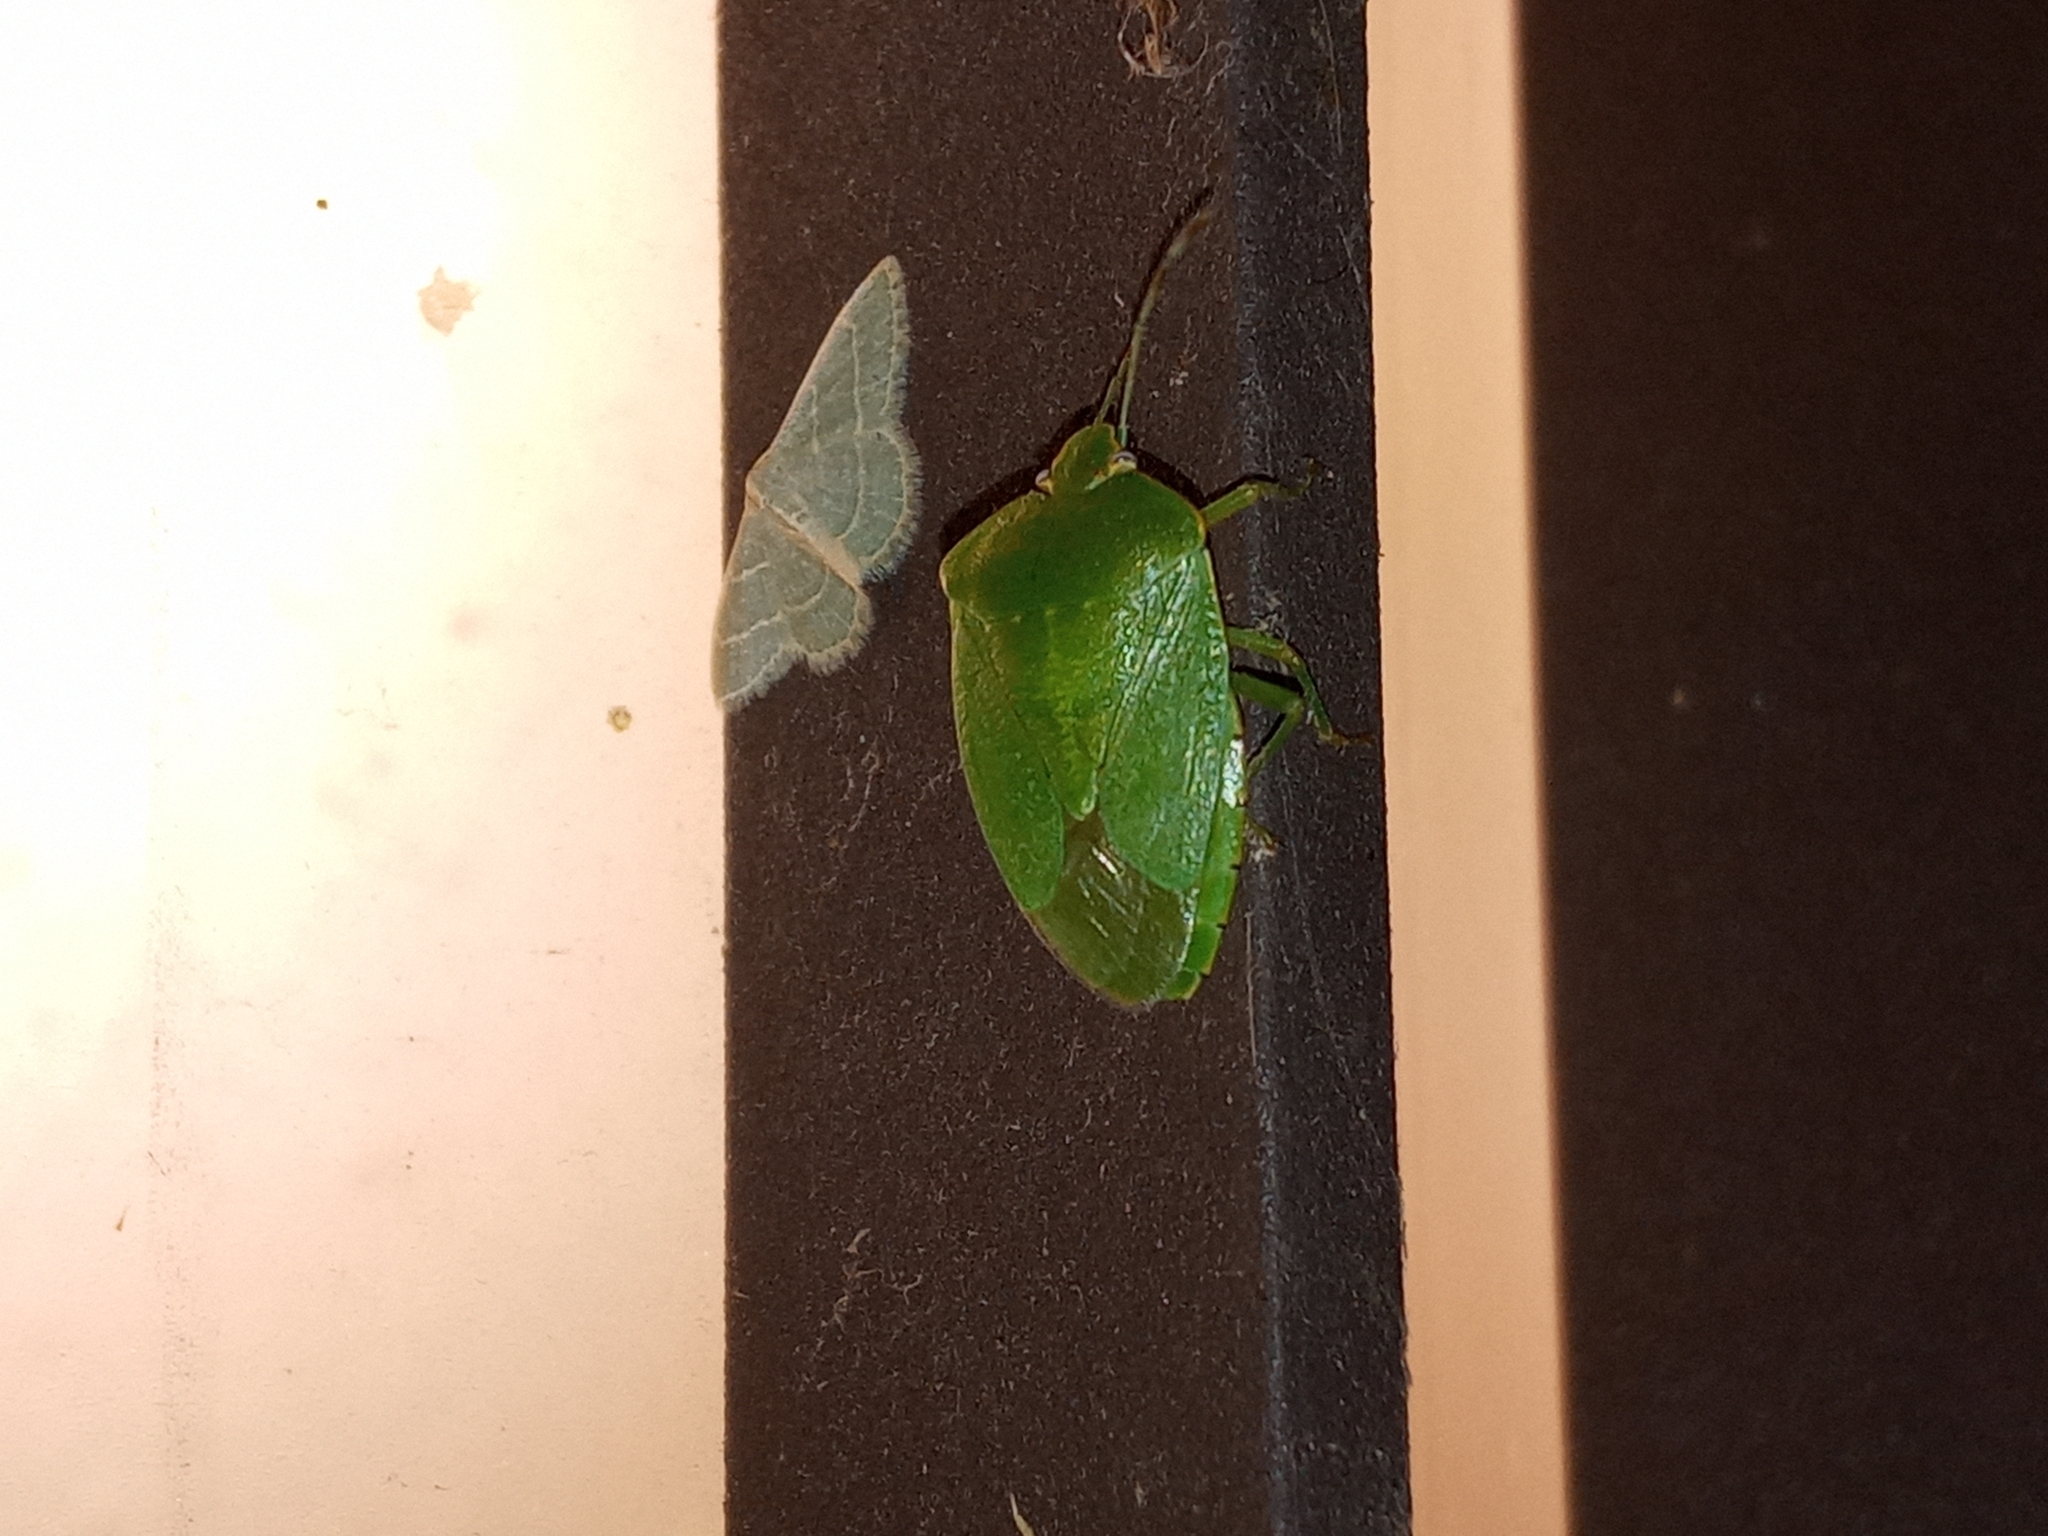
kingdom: Animalia
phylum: Arthropoda
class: Insecta
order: Hemiptera
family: Pentatomidae
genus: Chinavia
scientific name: Chinavia hilaris
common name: Green stink bug
